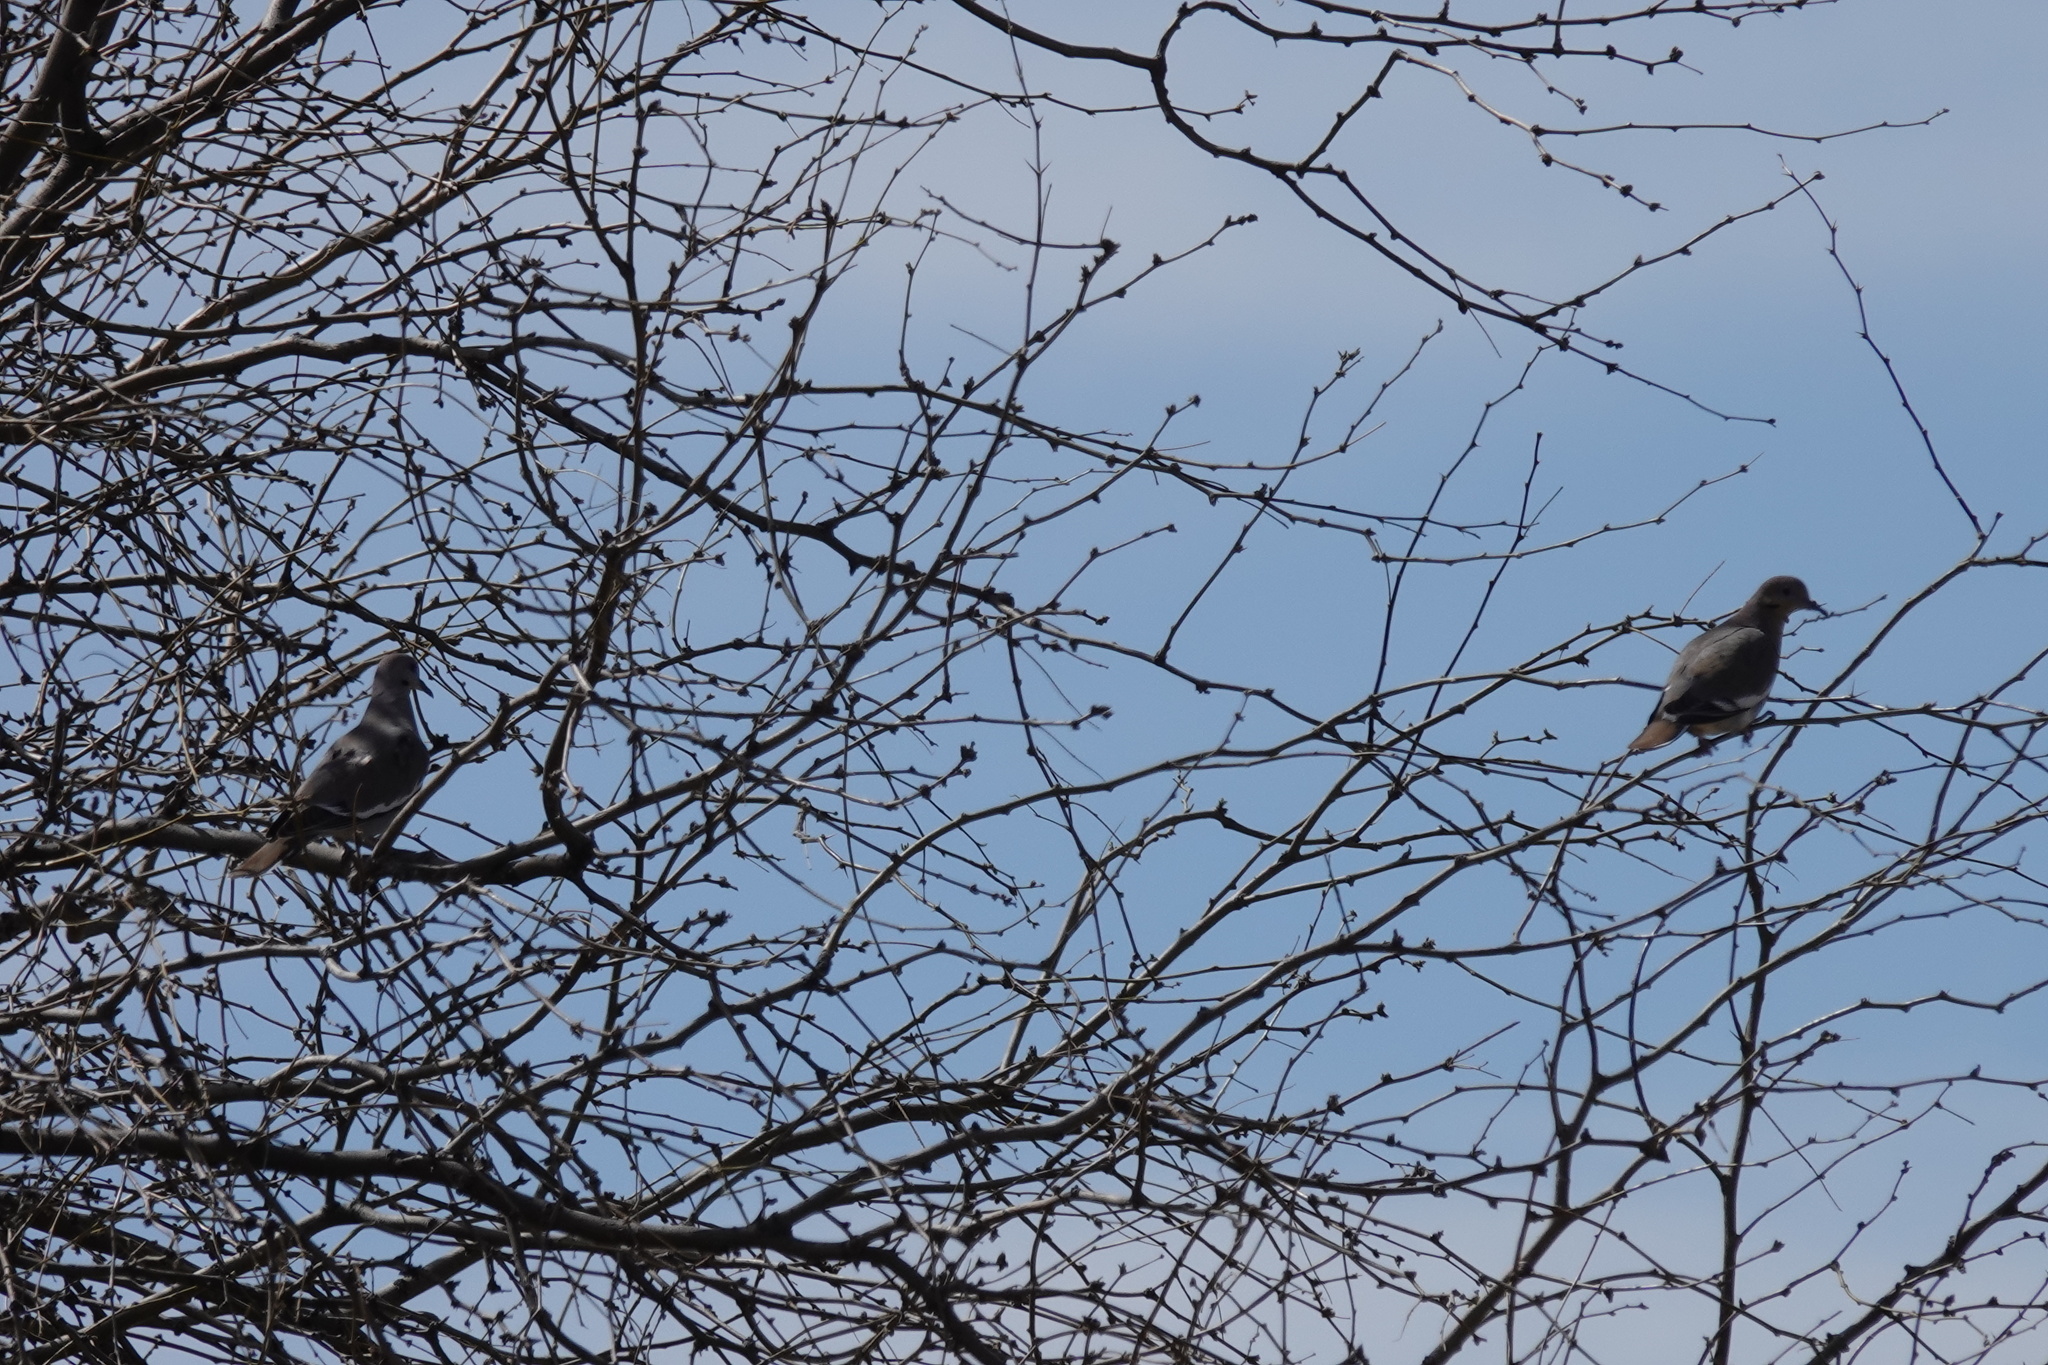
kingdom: Animalia
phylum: Chordata
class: Aves
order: Columbiformes
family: Columbidae
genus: Zenaida
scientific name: Zenaida asiatica
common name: White-winged dove
